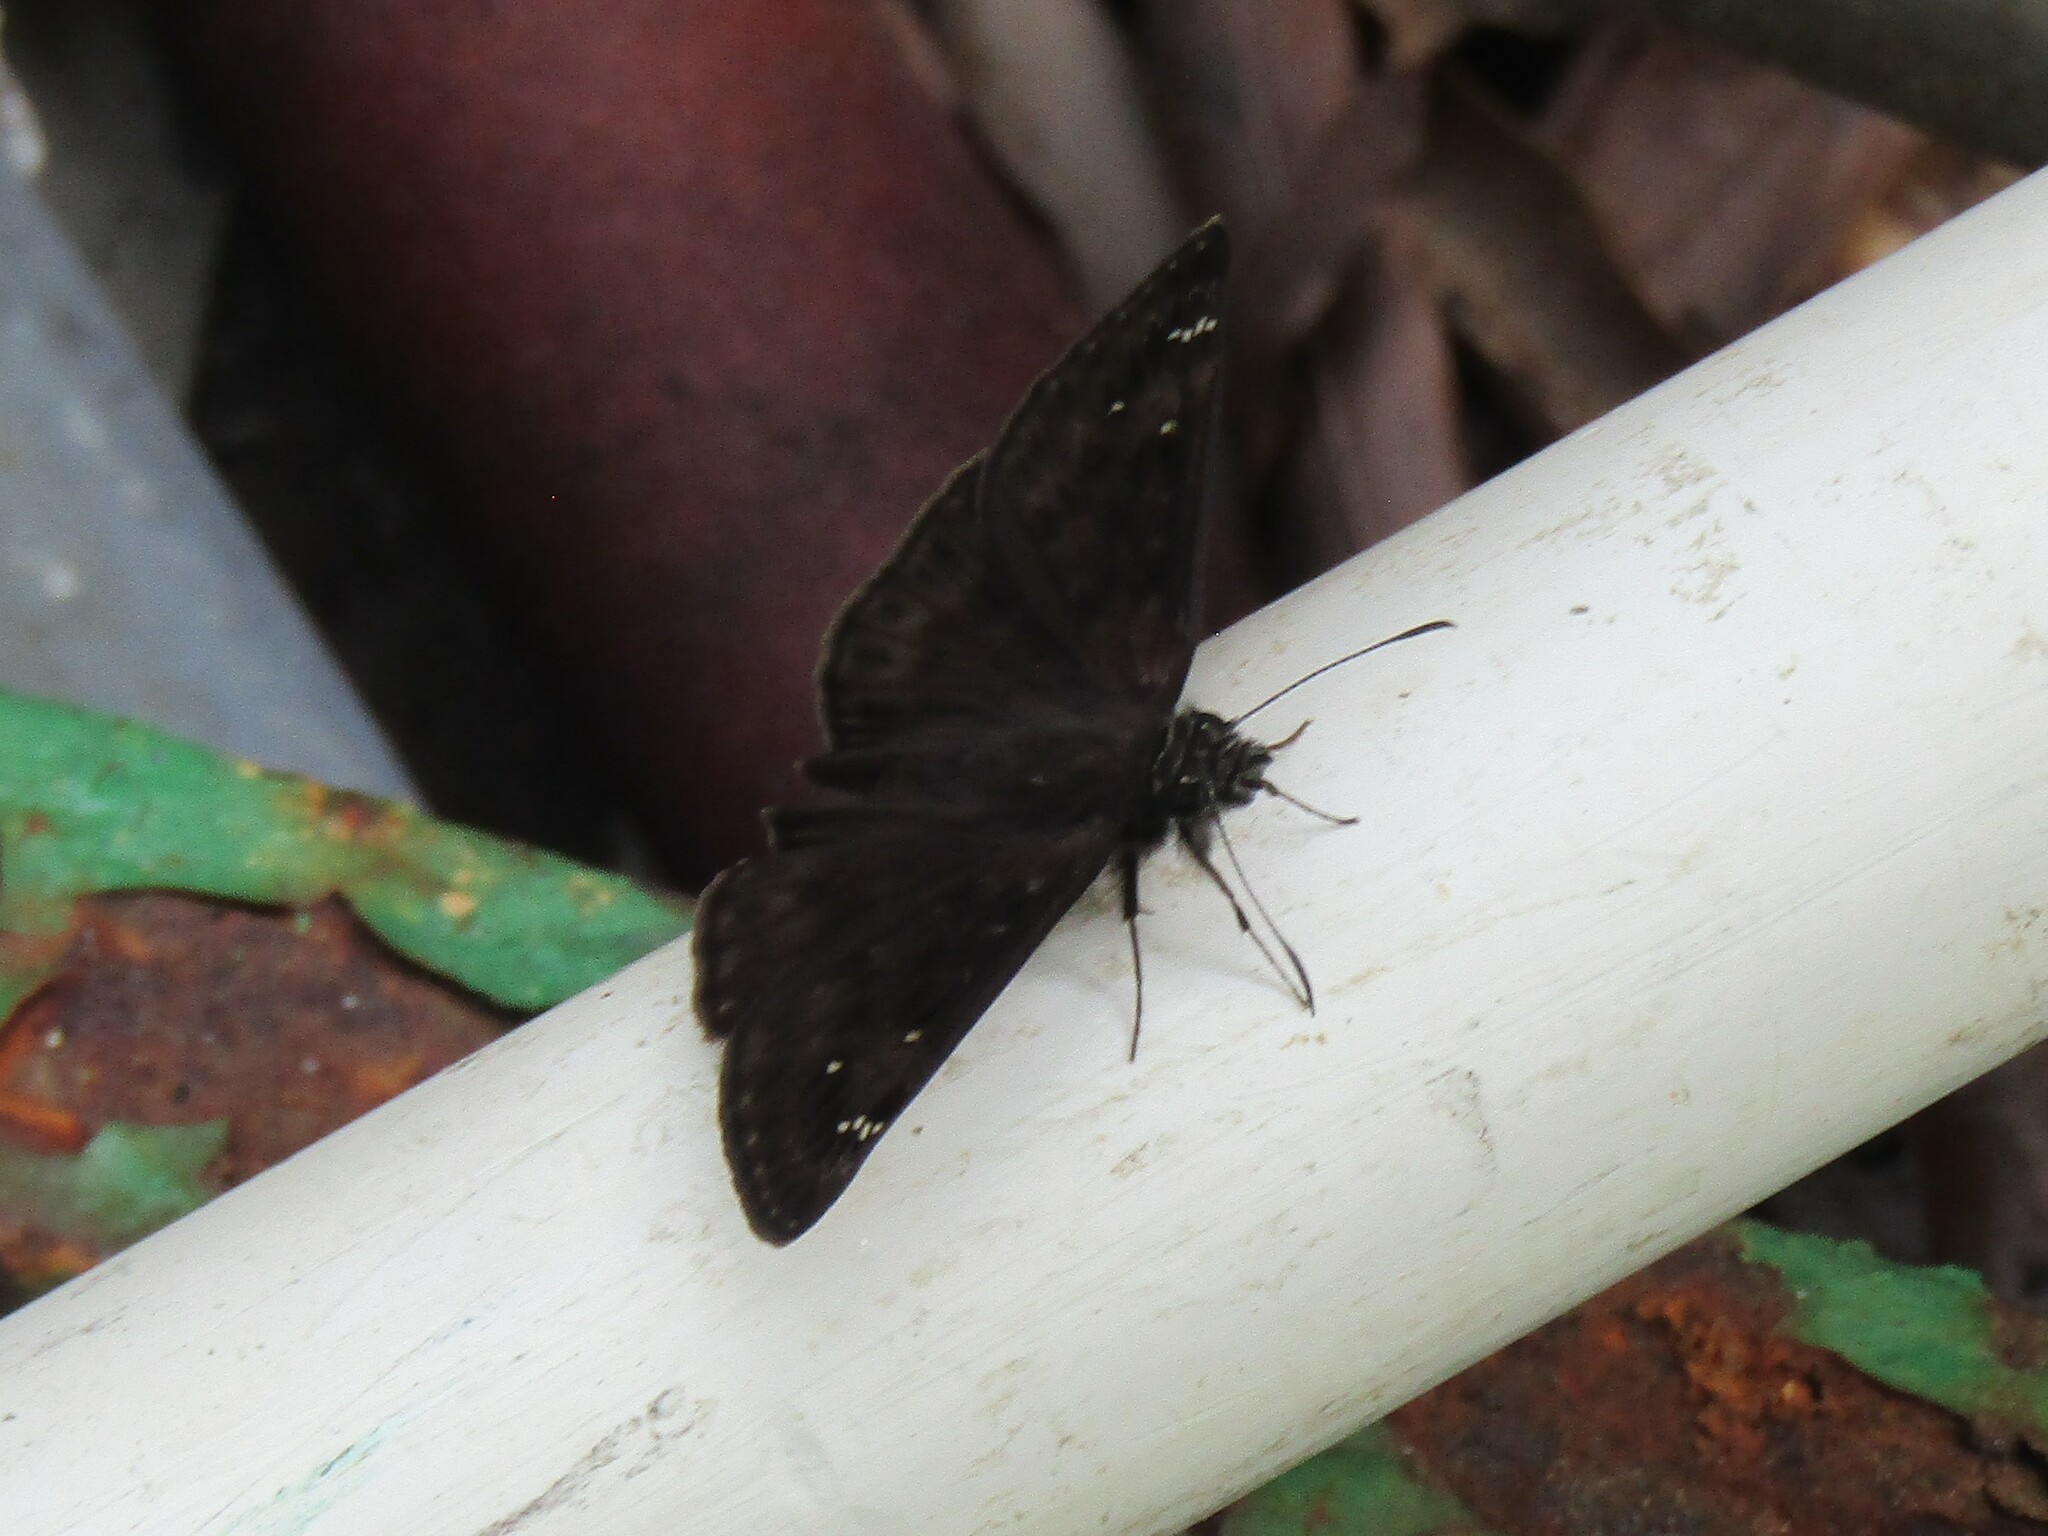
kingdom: Animalia
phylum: Arthropoda
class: Insecta
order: Lepidoptera
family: Hesperiidae
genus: Erynnis
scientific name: Erynnis horatius
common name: Horace's duskywing
